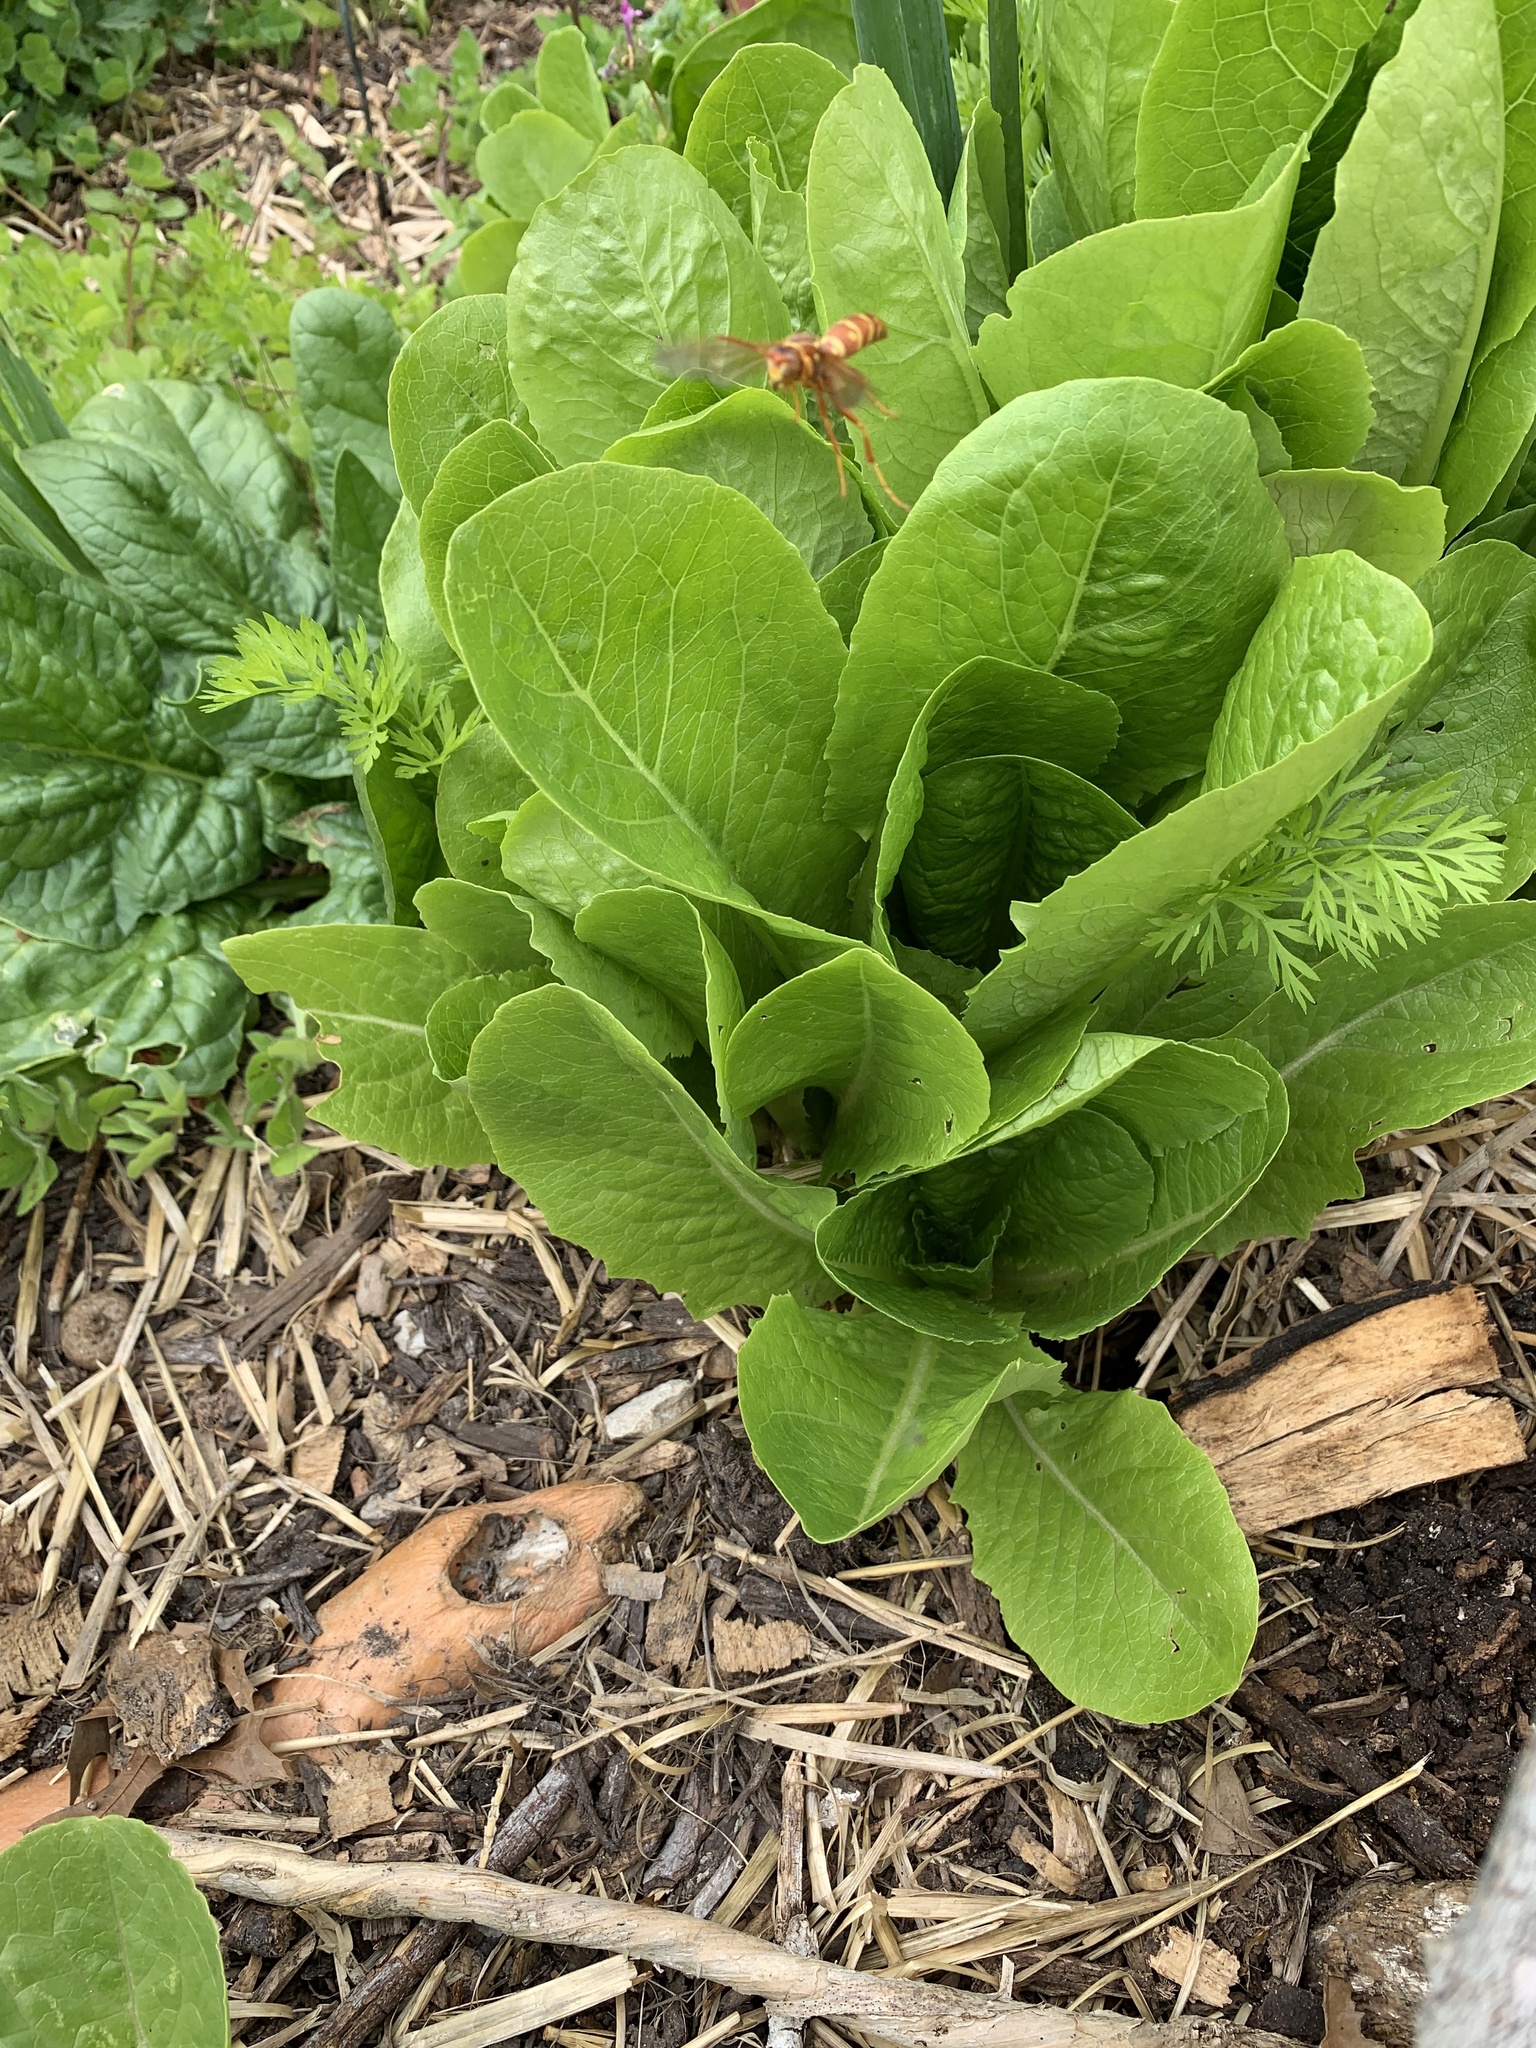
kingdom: Animalia
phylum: Arthropoda
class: Insecta
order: Hymenoptera
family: Vespidae
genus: Fuscopolistes
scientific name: Fuscopolistes
